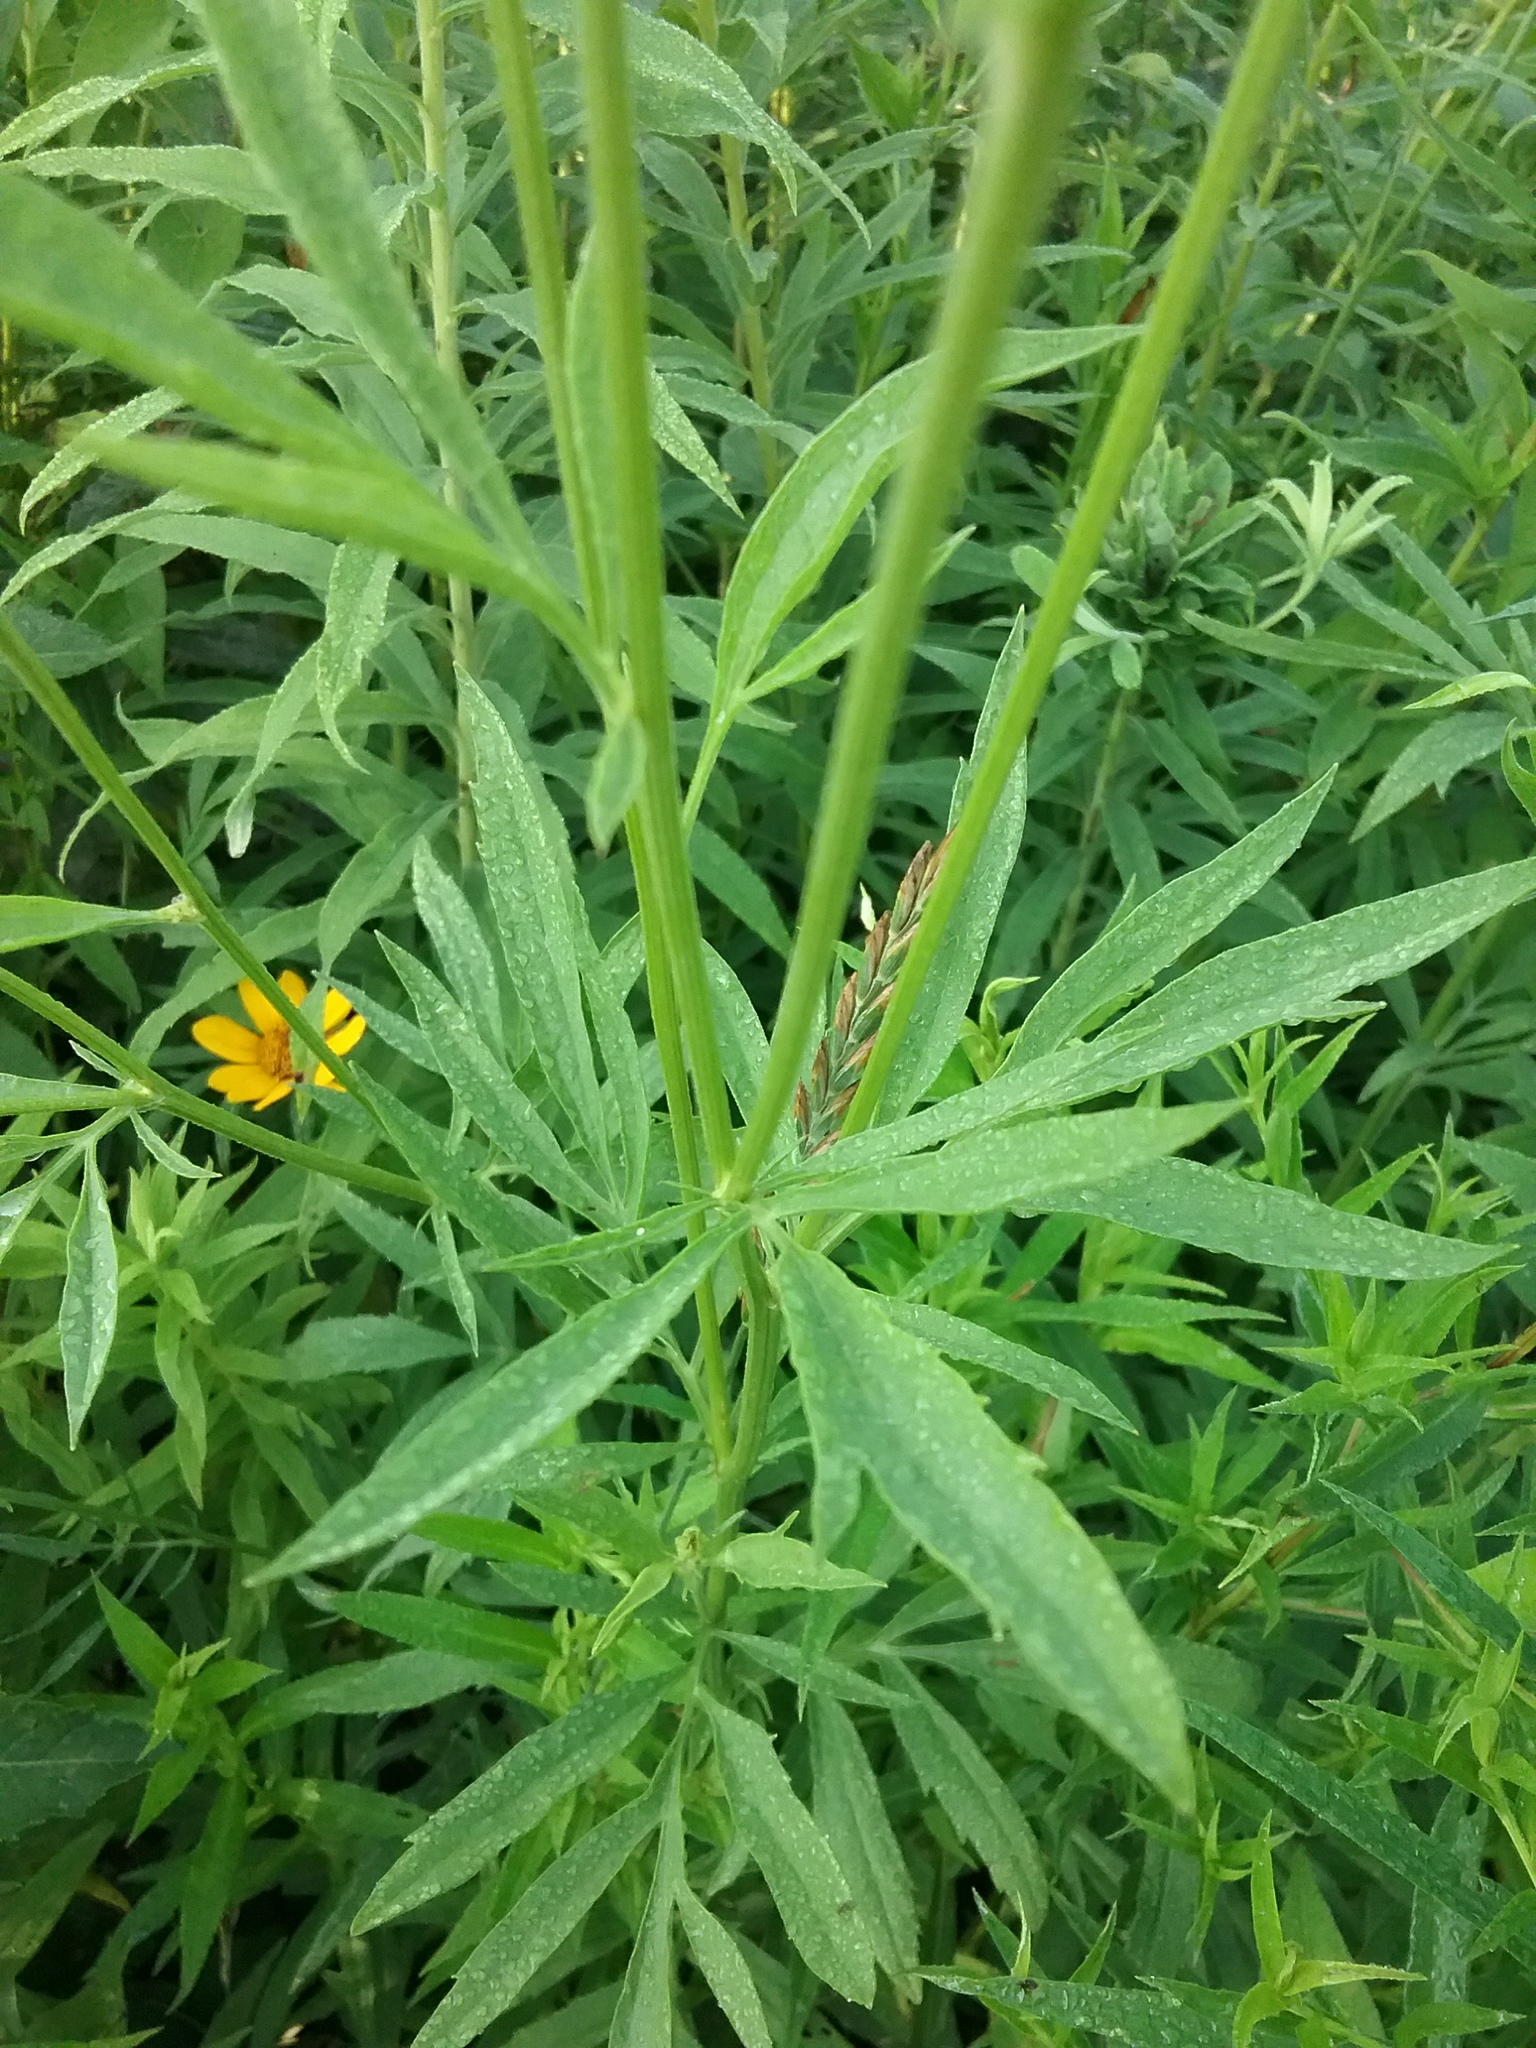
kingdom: Plantae
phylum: Tracheophyta
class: Magnoliopsida
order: Asterales
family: Asteraceae
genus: Ratibida
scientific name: Ratibida pinnata
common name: Drooping prairie-coneflower
